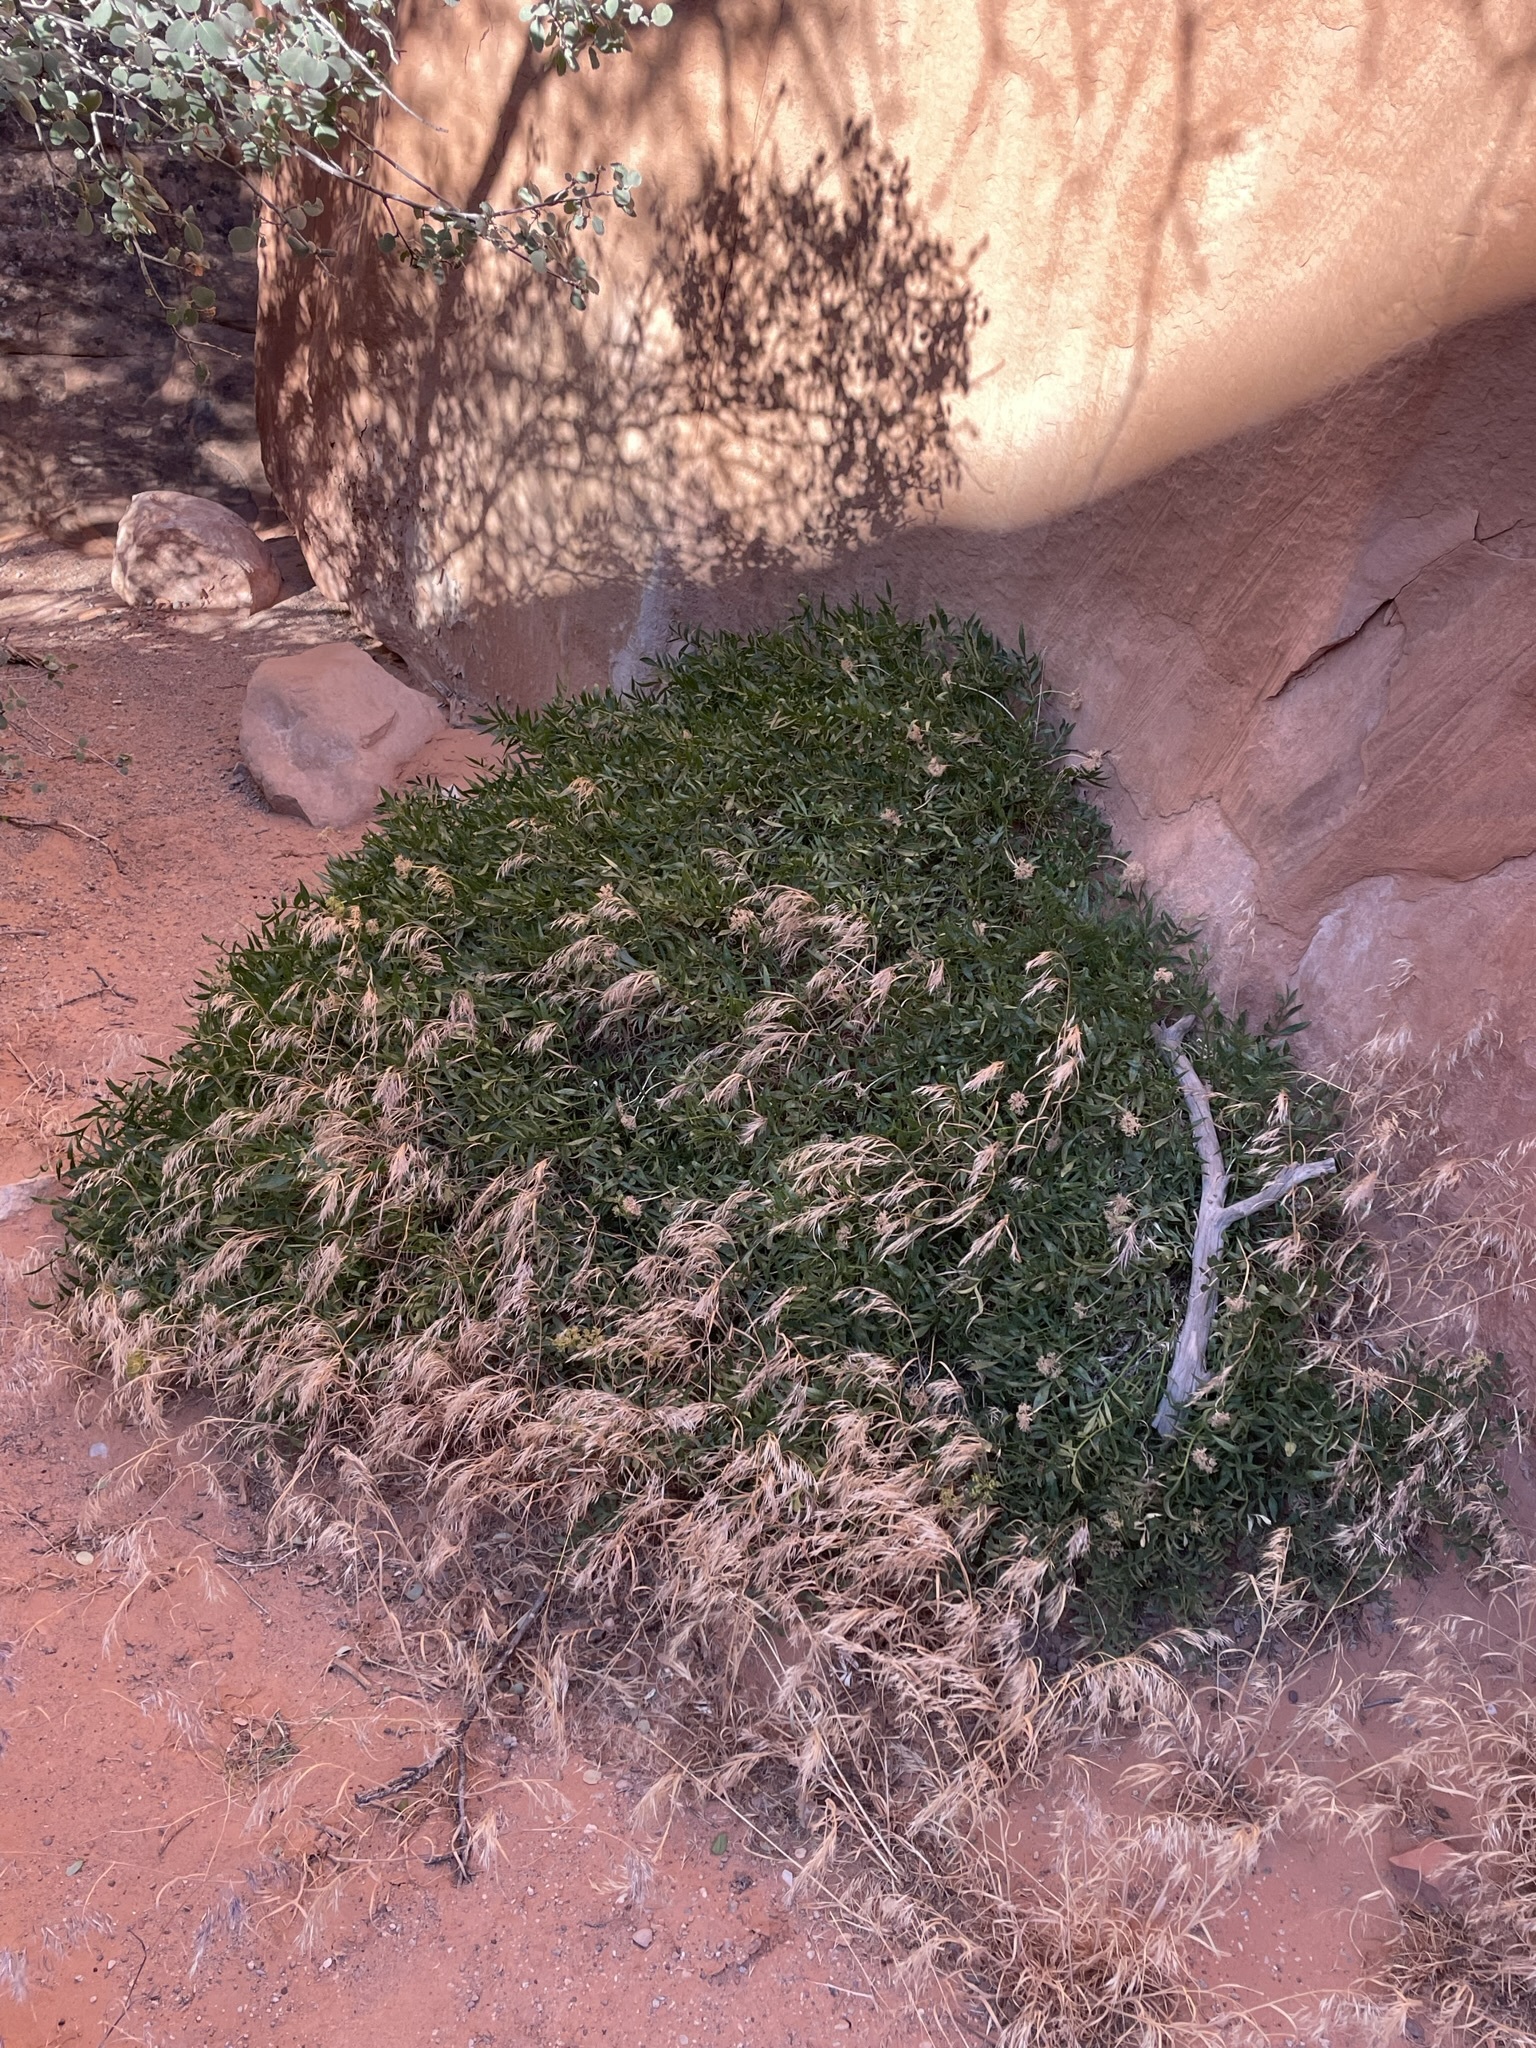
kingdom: Plantae
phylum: Tracheophyta
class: Magnoliopsida
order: Apiales
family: Apiaceae
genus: Lomatium
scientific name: Lomatium latilobum
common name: Canyonlands lomatium
